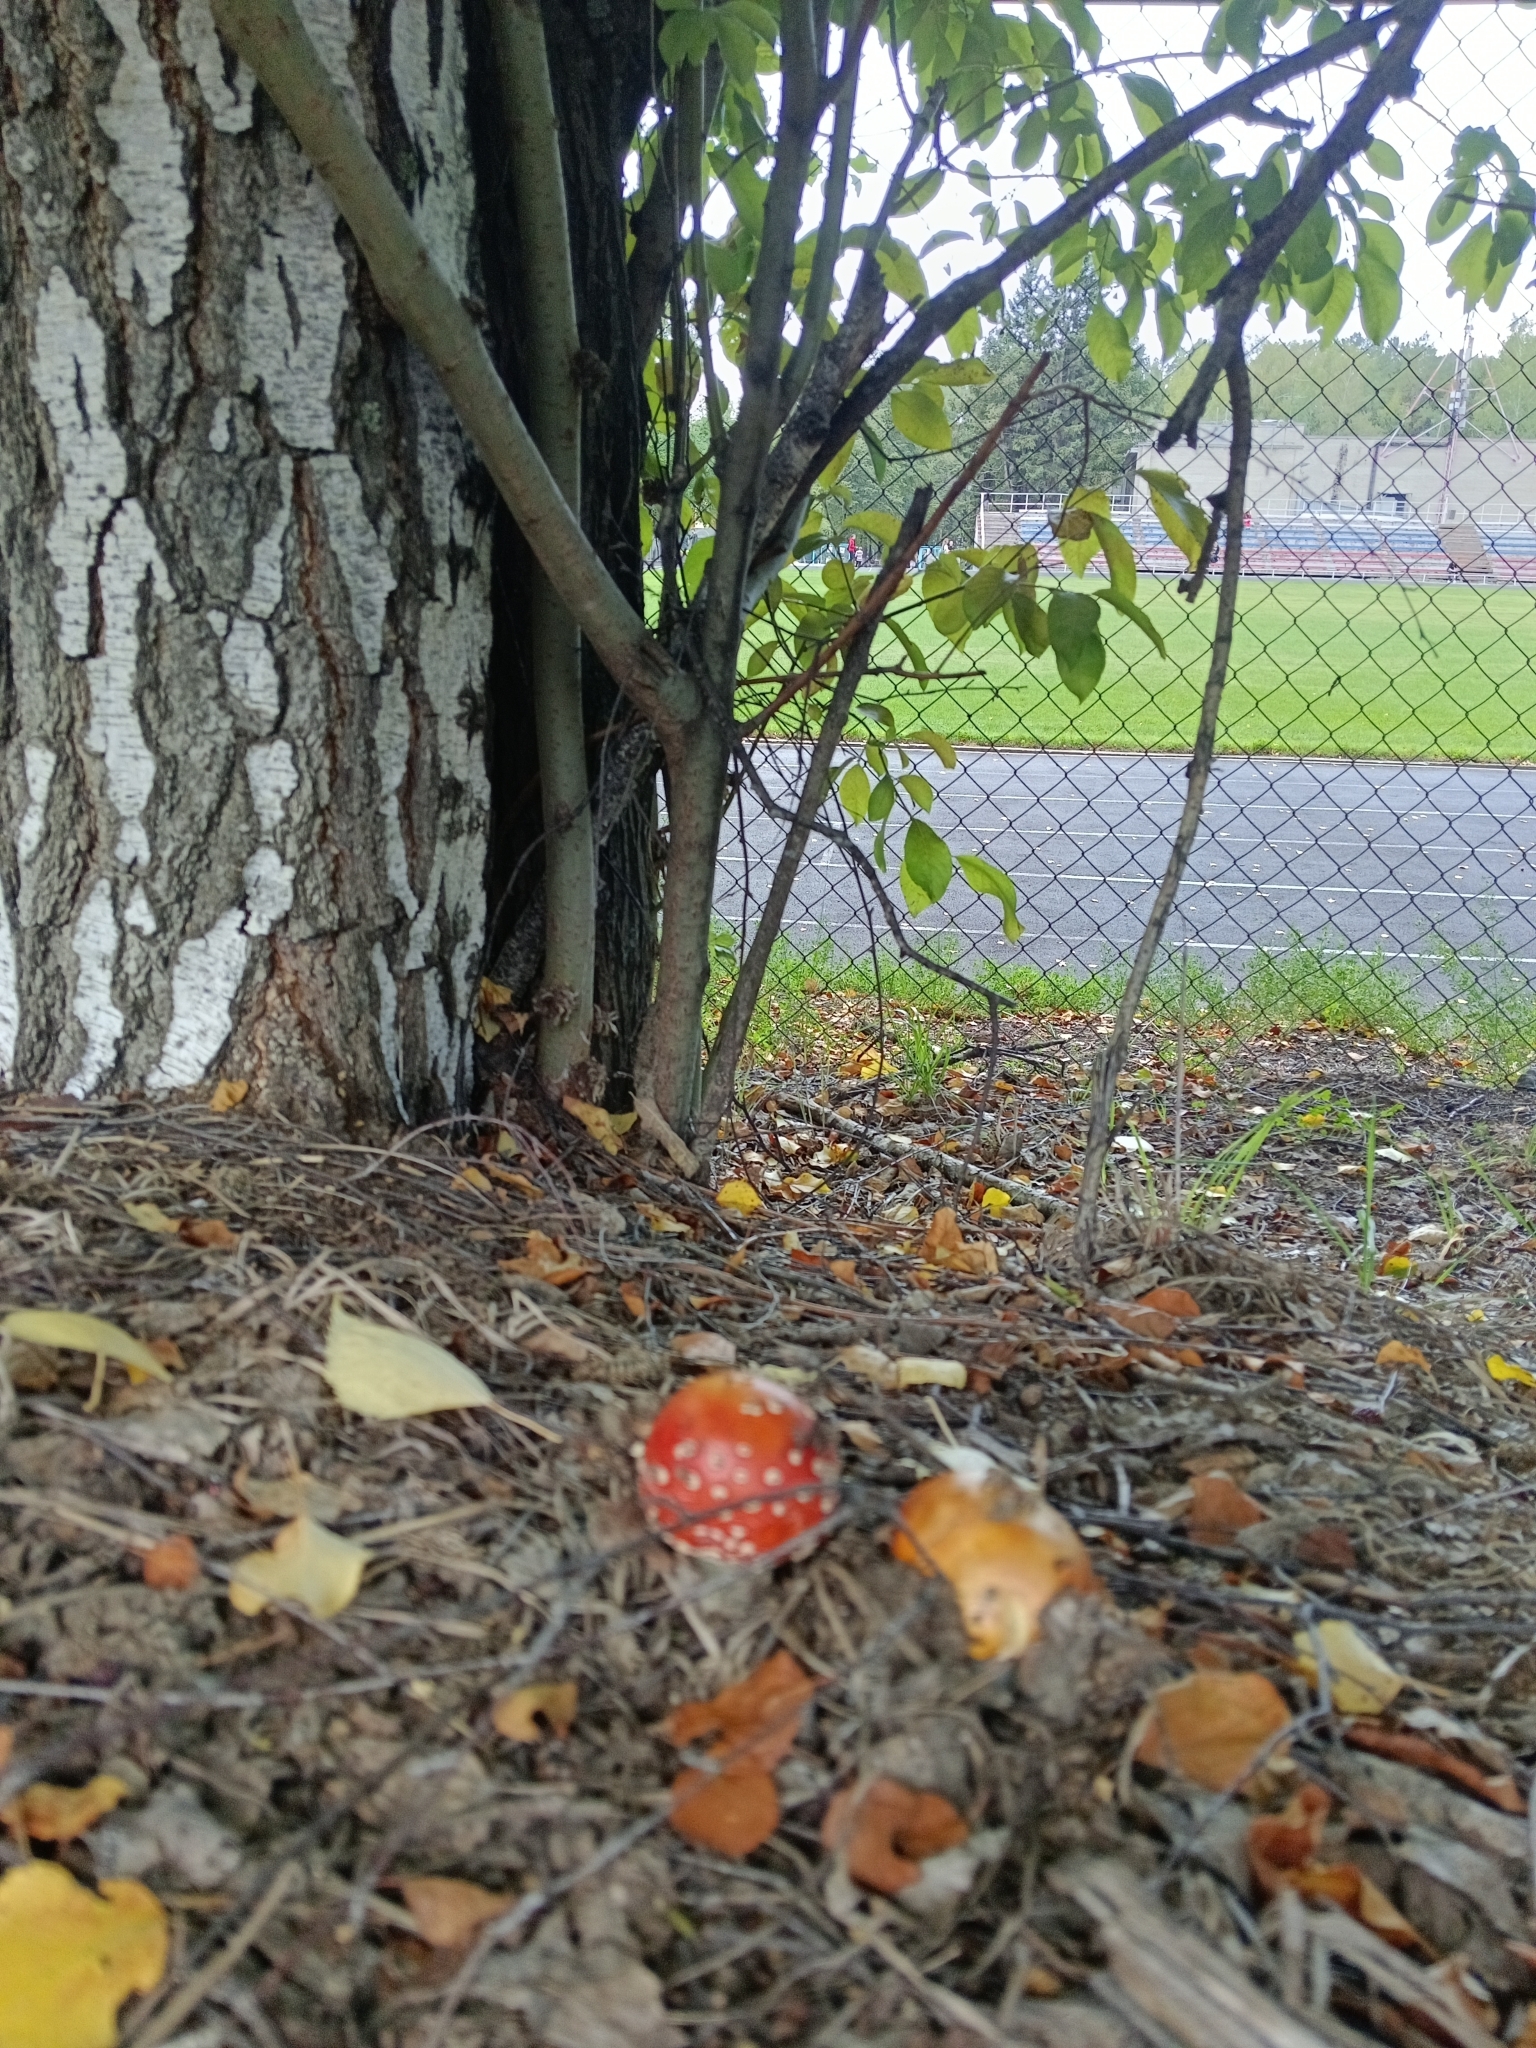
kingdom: Fungi
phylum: Basidiomycota
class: Agaricomycetes
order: Agaricales
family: Amanitaceae
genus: Amanita
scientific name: Amanita muscaria
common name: Fly agaric
